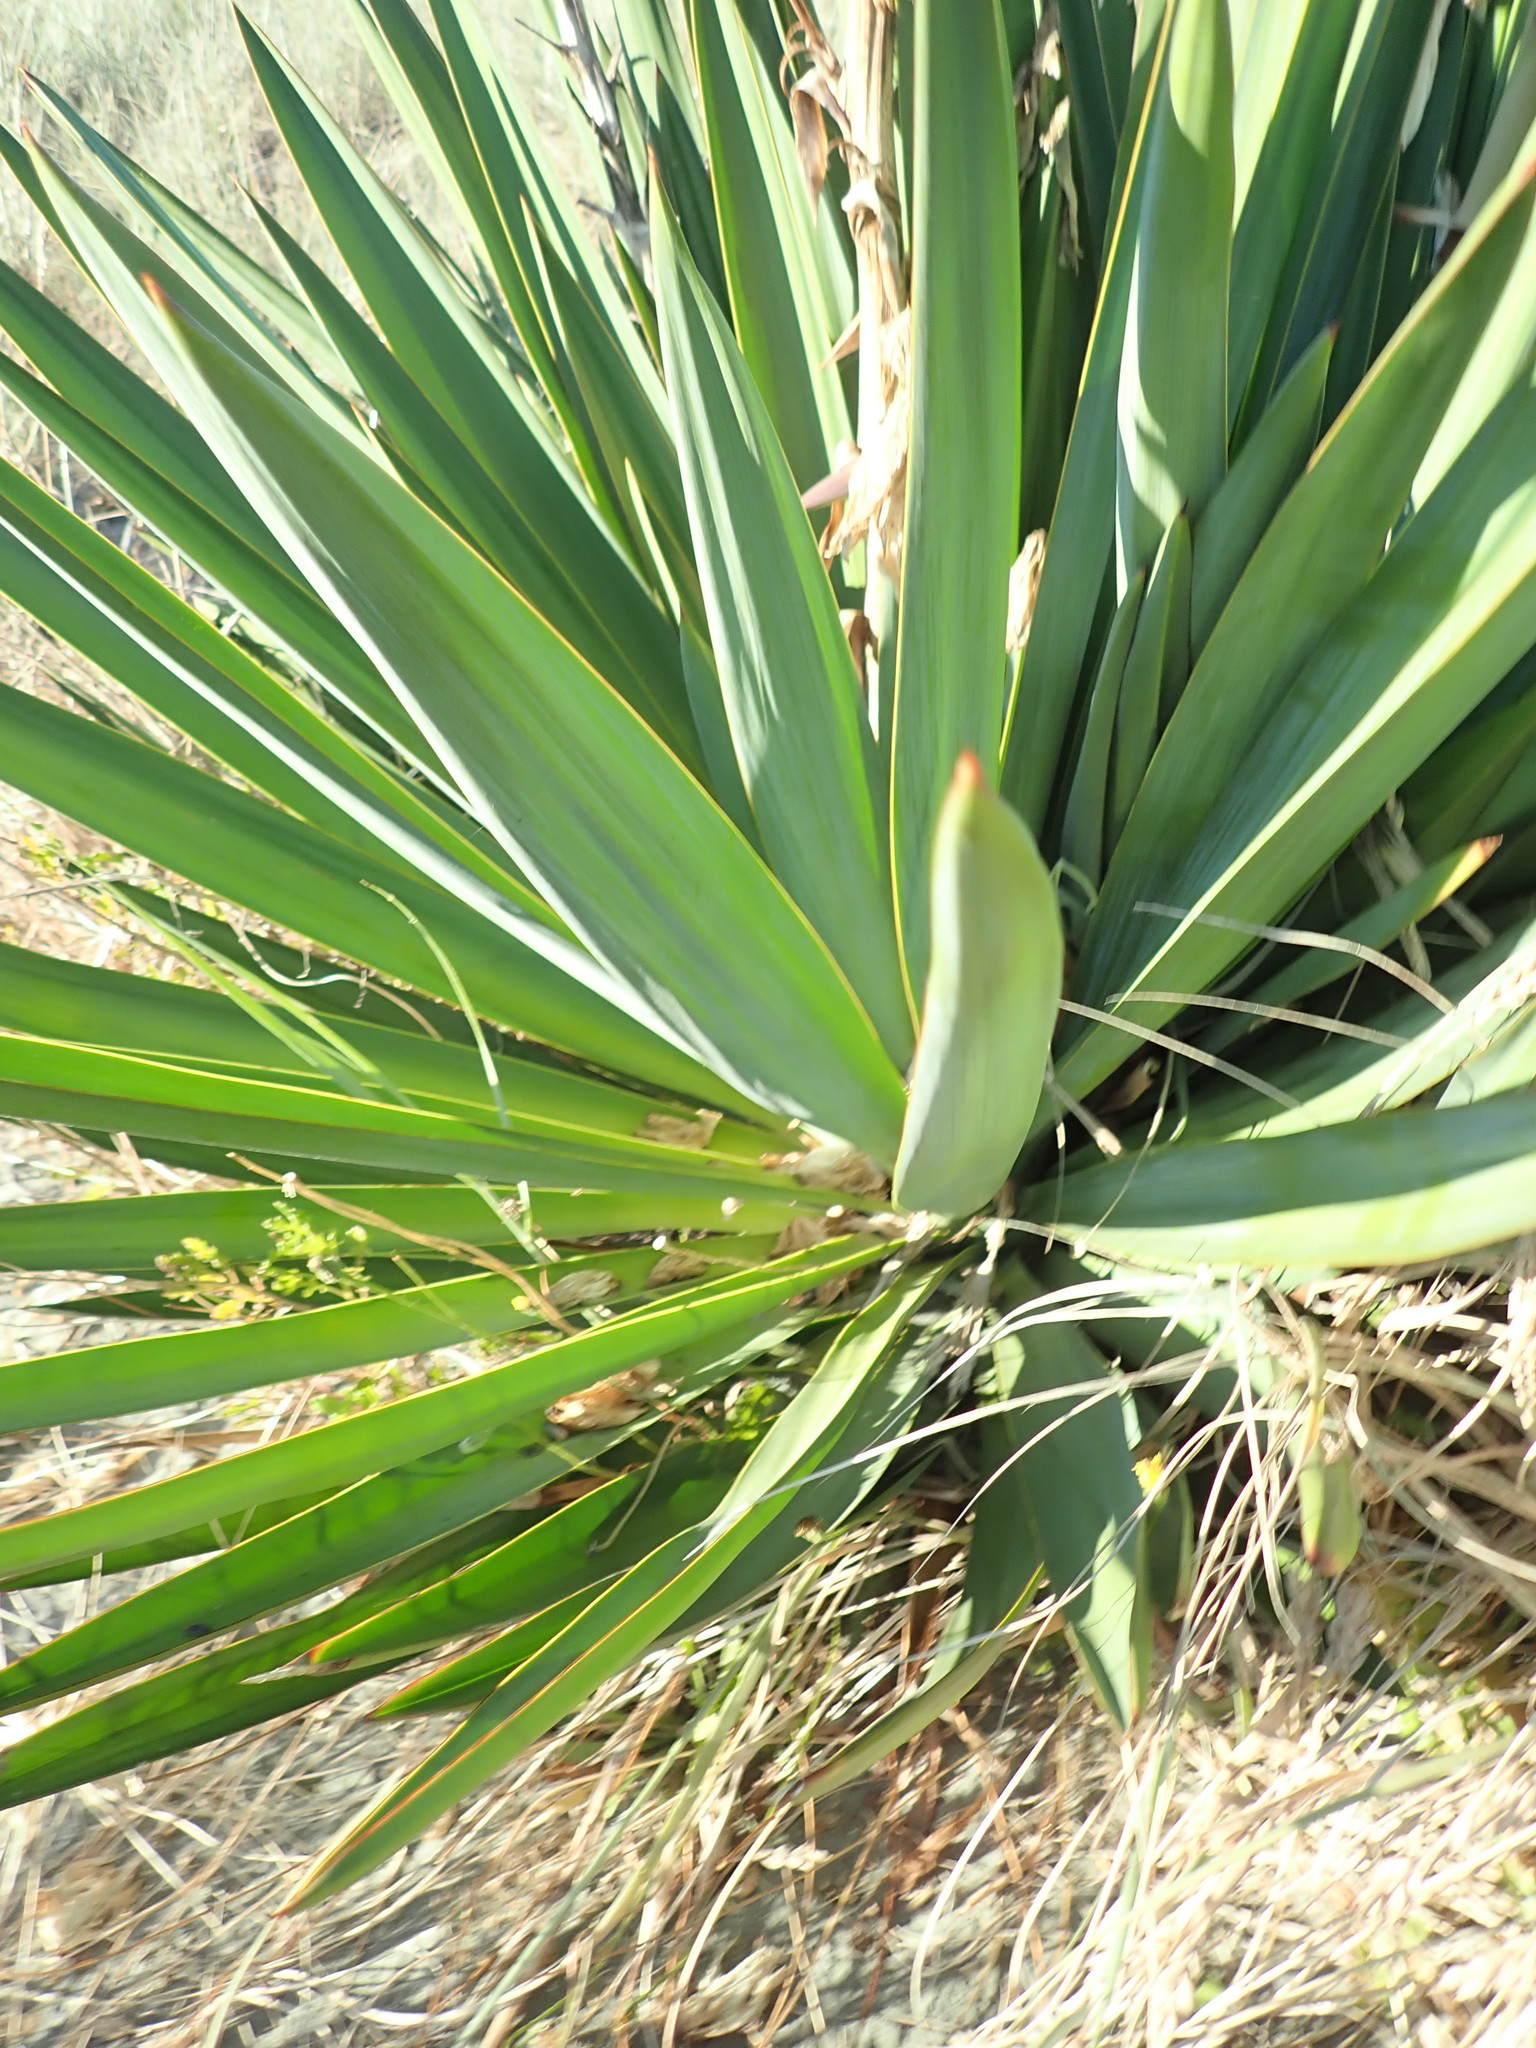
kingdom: Plantae
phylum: Tracheophyta
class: Liliopsida
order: Asparagales
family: Asparagaceae
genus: Yucca
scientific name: Yucca gloriosa
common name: Spanish-dagger
